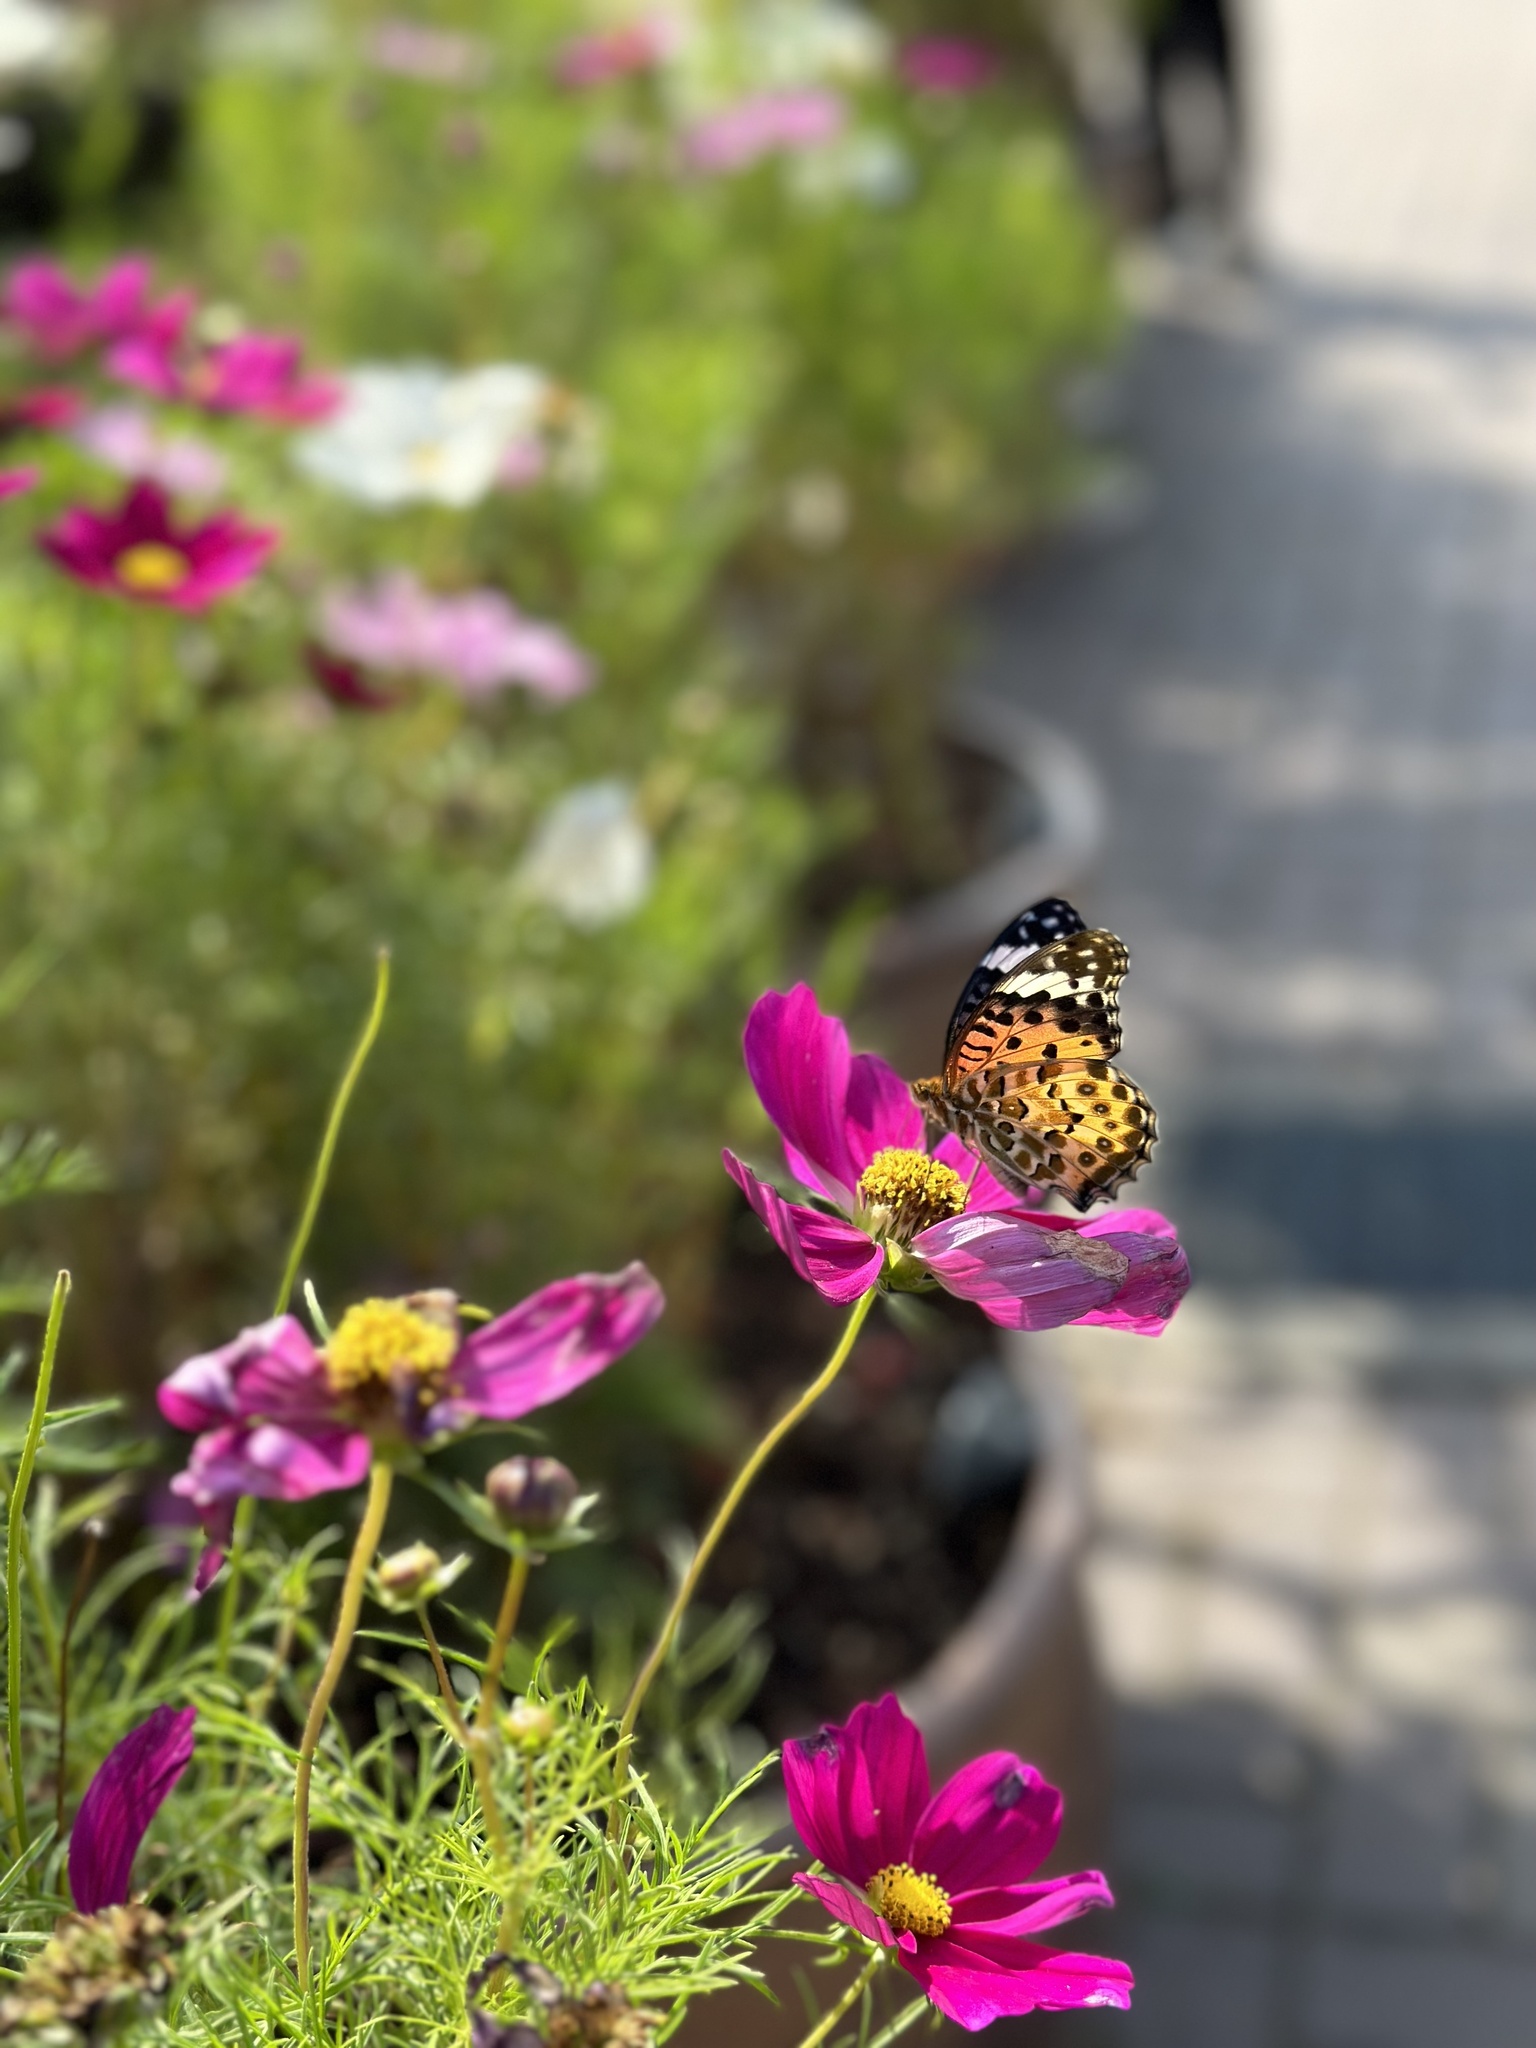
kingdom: Animalia
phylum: Arthropoda
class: Insecta
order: Lepidoptera
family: Nymphalidae
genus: Argynnis
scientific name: Argynnis hyperbius
